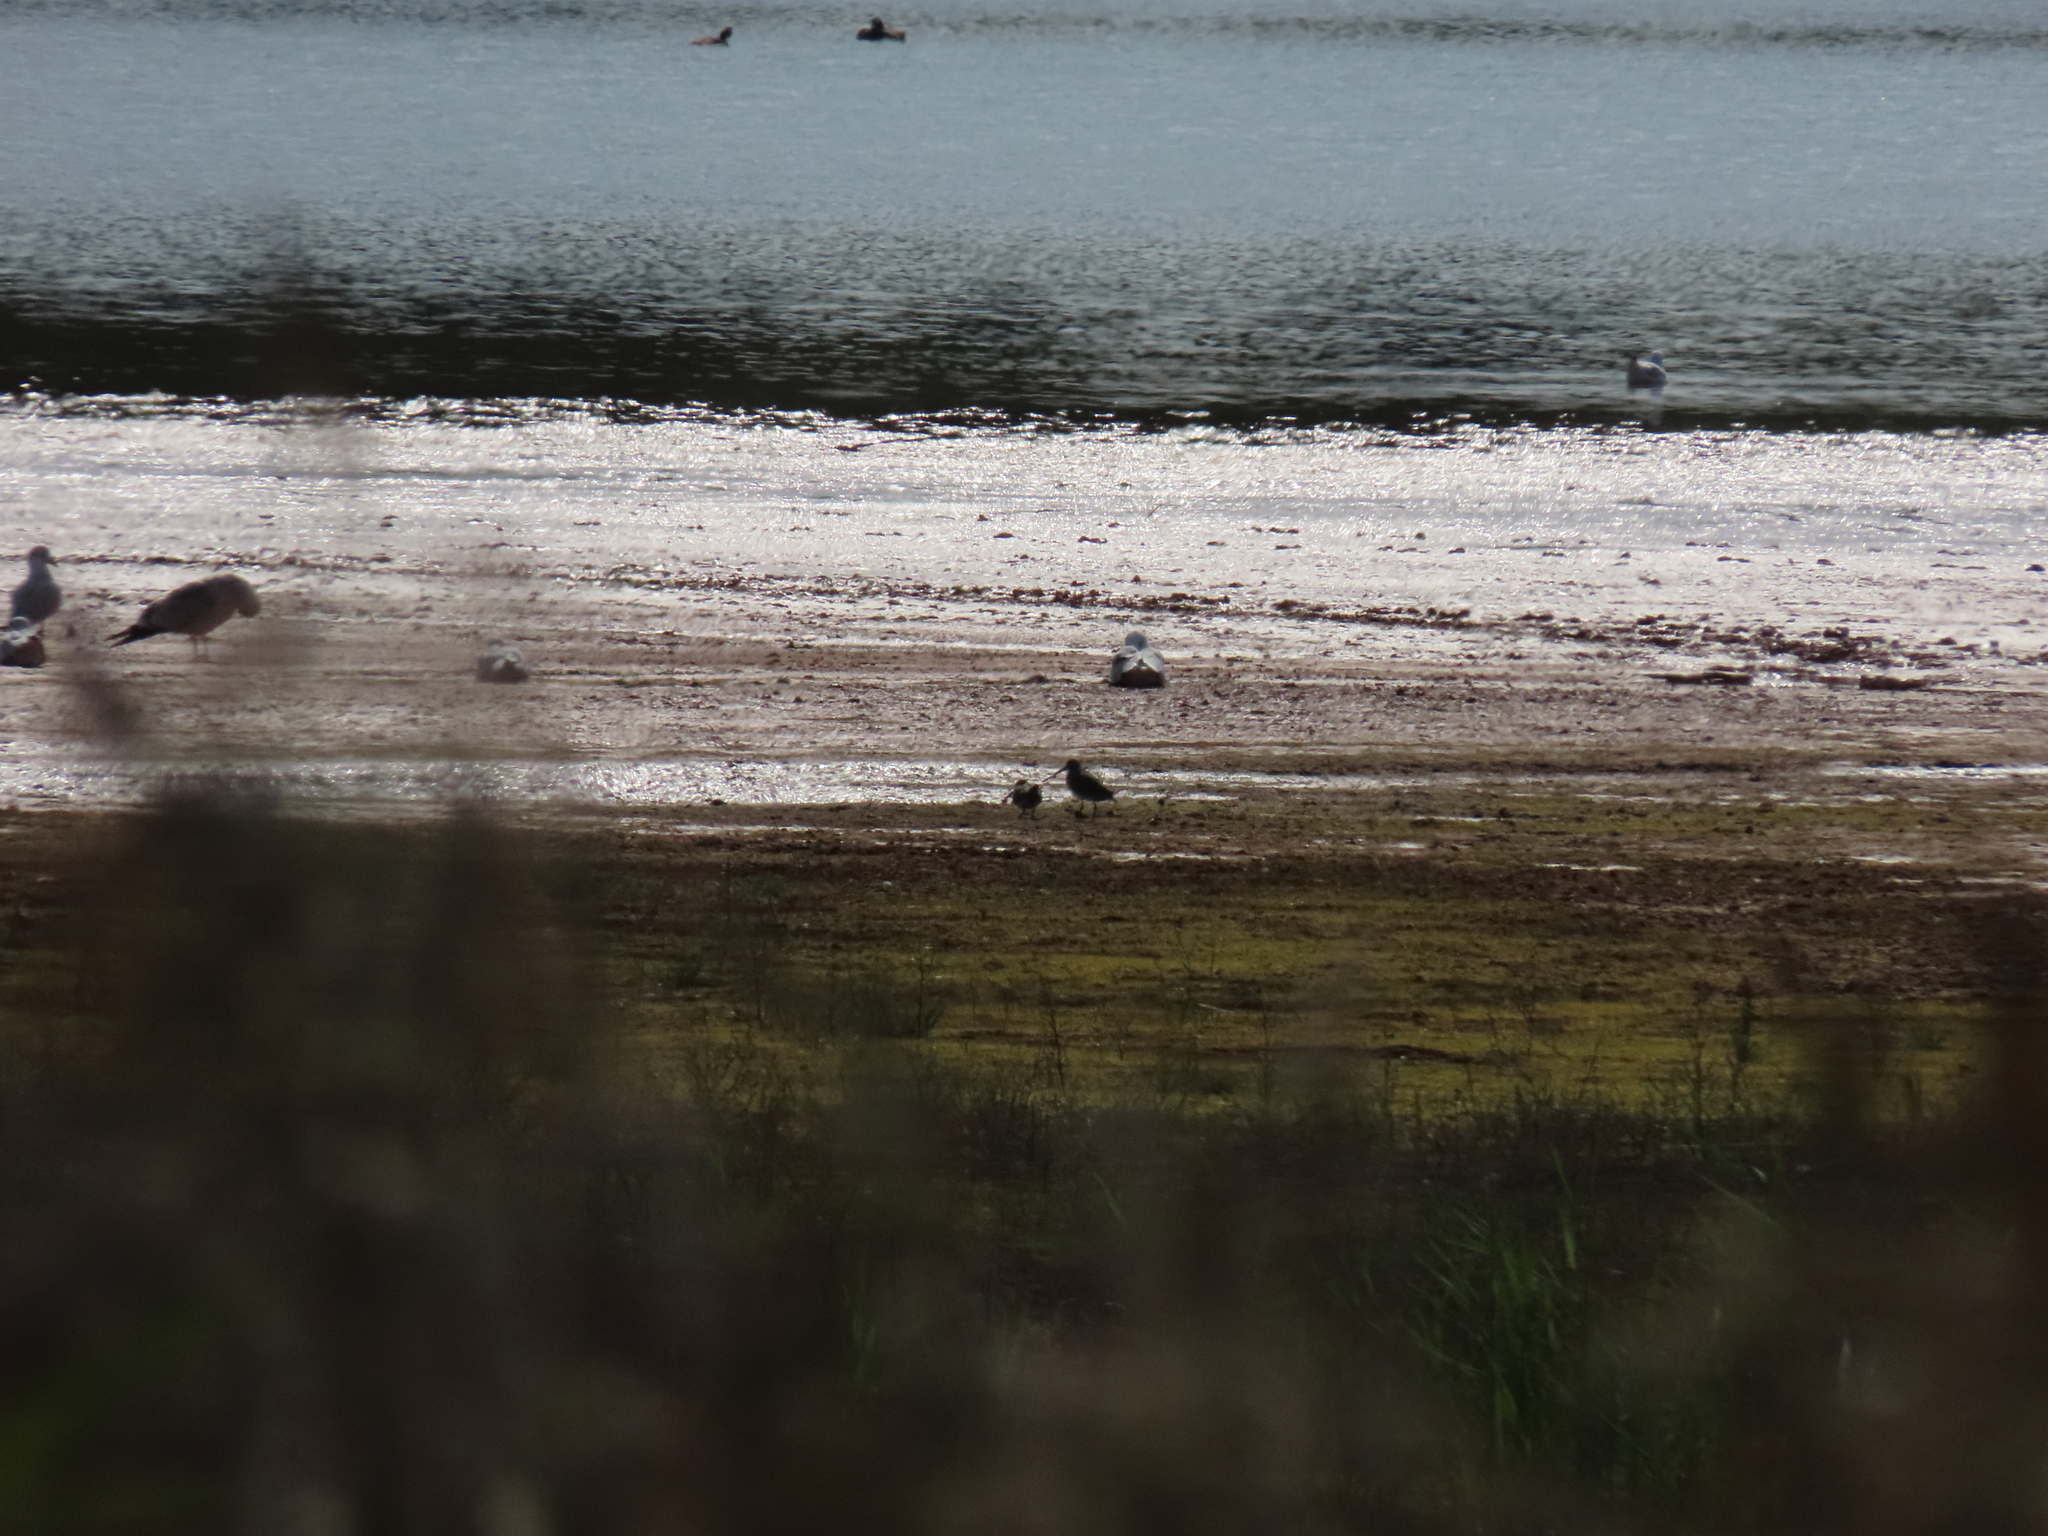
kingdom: Animalia
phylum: Chordata
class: Aves
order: Charadriiformes
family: Scolopacidae
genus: Gallinago
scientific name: Gallinago gallinago
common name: Common snipe
